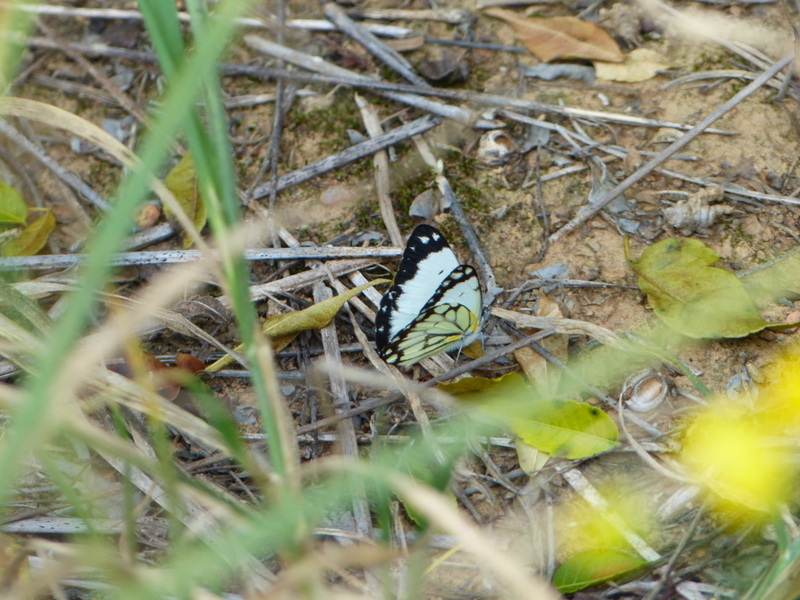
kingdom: Animalia
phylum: Arthropoda
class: Insecta
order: Lepidoptera
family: Pieridae
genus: Belenois
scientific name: Belenois creona
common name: African caper white
